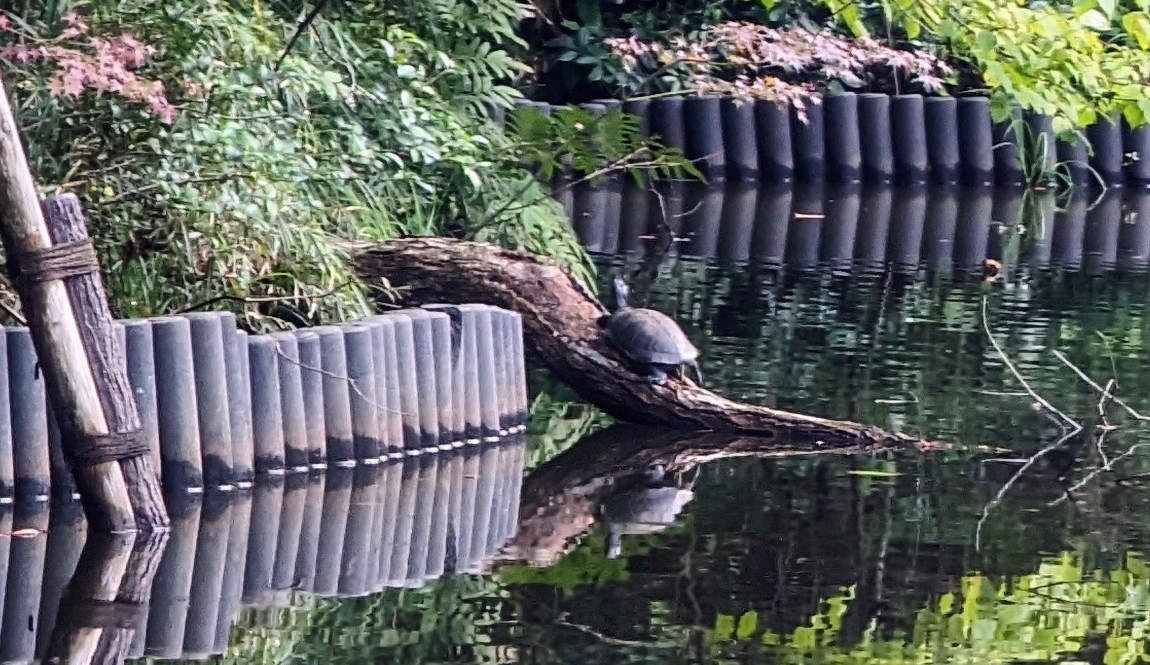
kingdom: Animalia
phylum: Chordata
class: Testudines
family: Emydidae
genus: Trachemys
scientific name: Trachemys scripta
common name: Slider
